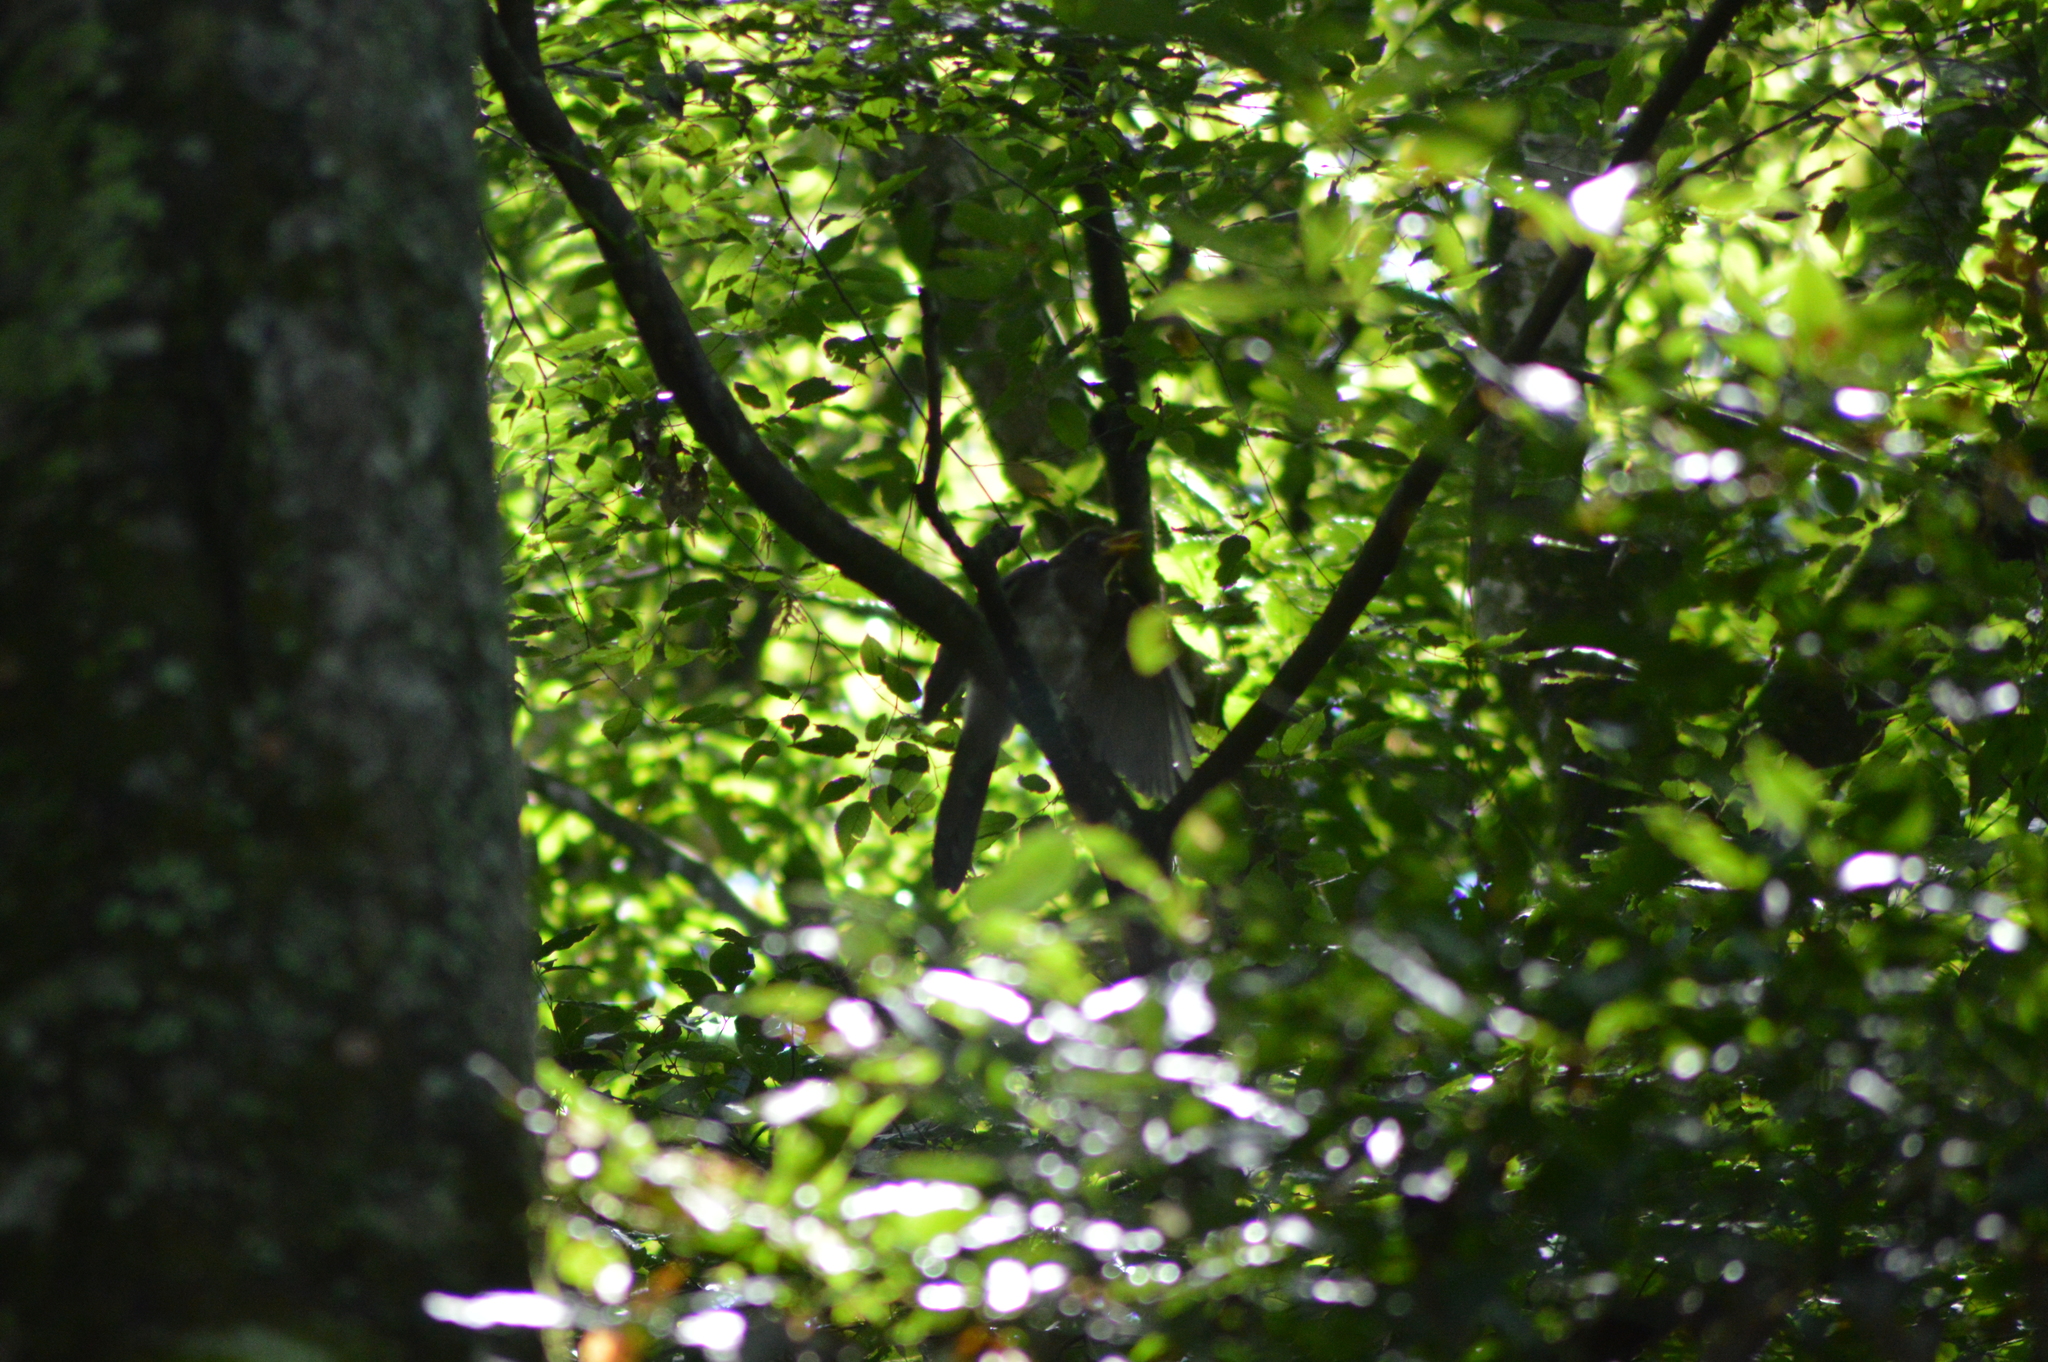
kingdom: Animalia
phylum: Chordata
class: Aves
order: Passeriformes
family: Corvidae
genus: Psilorhinus
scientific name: Psilorhinus morio
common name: Brown jay
